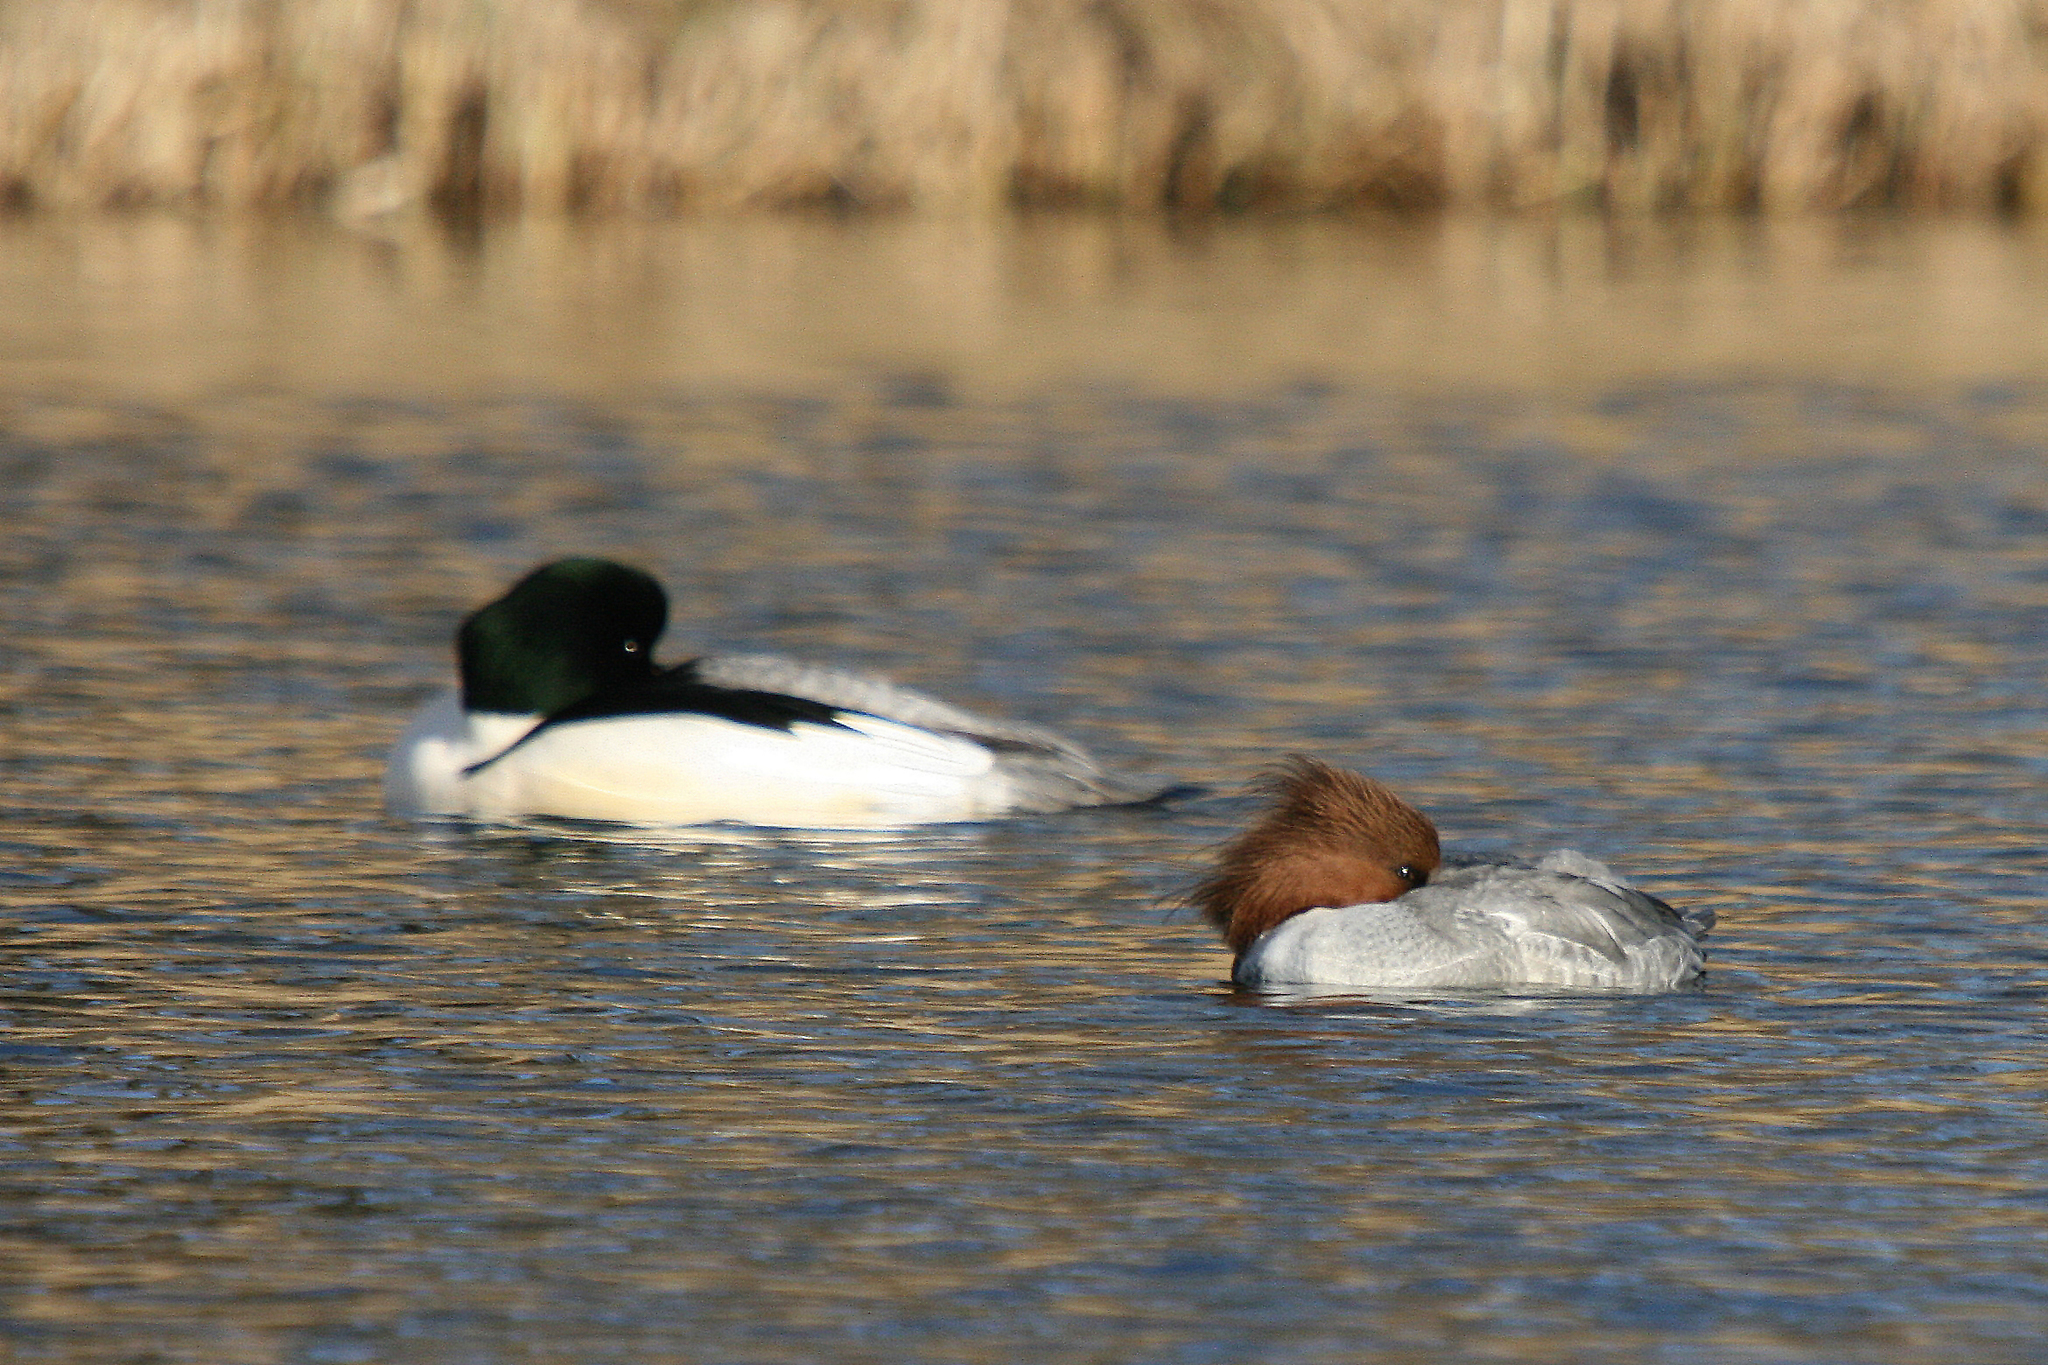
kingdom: Animalia
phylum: Chordata
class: Aves
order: Anseriformes
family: Anatidae
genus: Mergus
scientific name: Mergus merganser
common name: Common merganser
